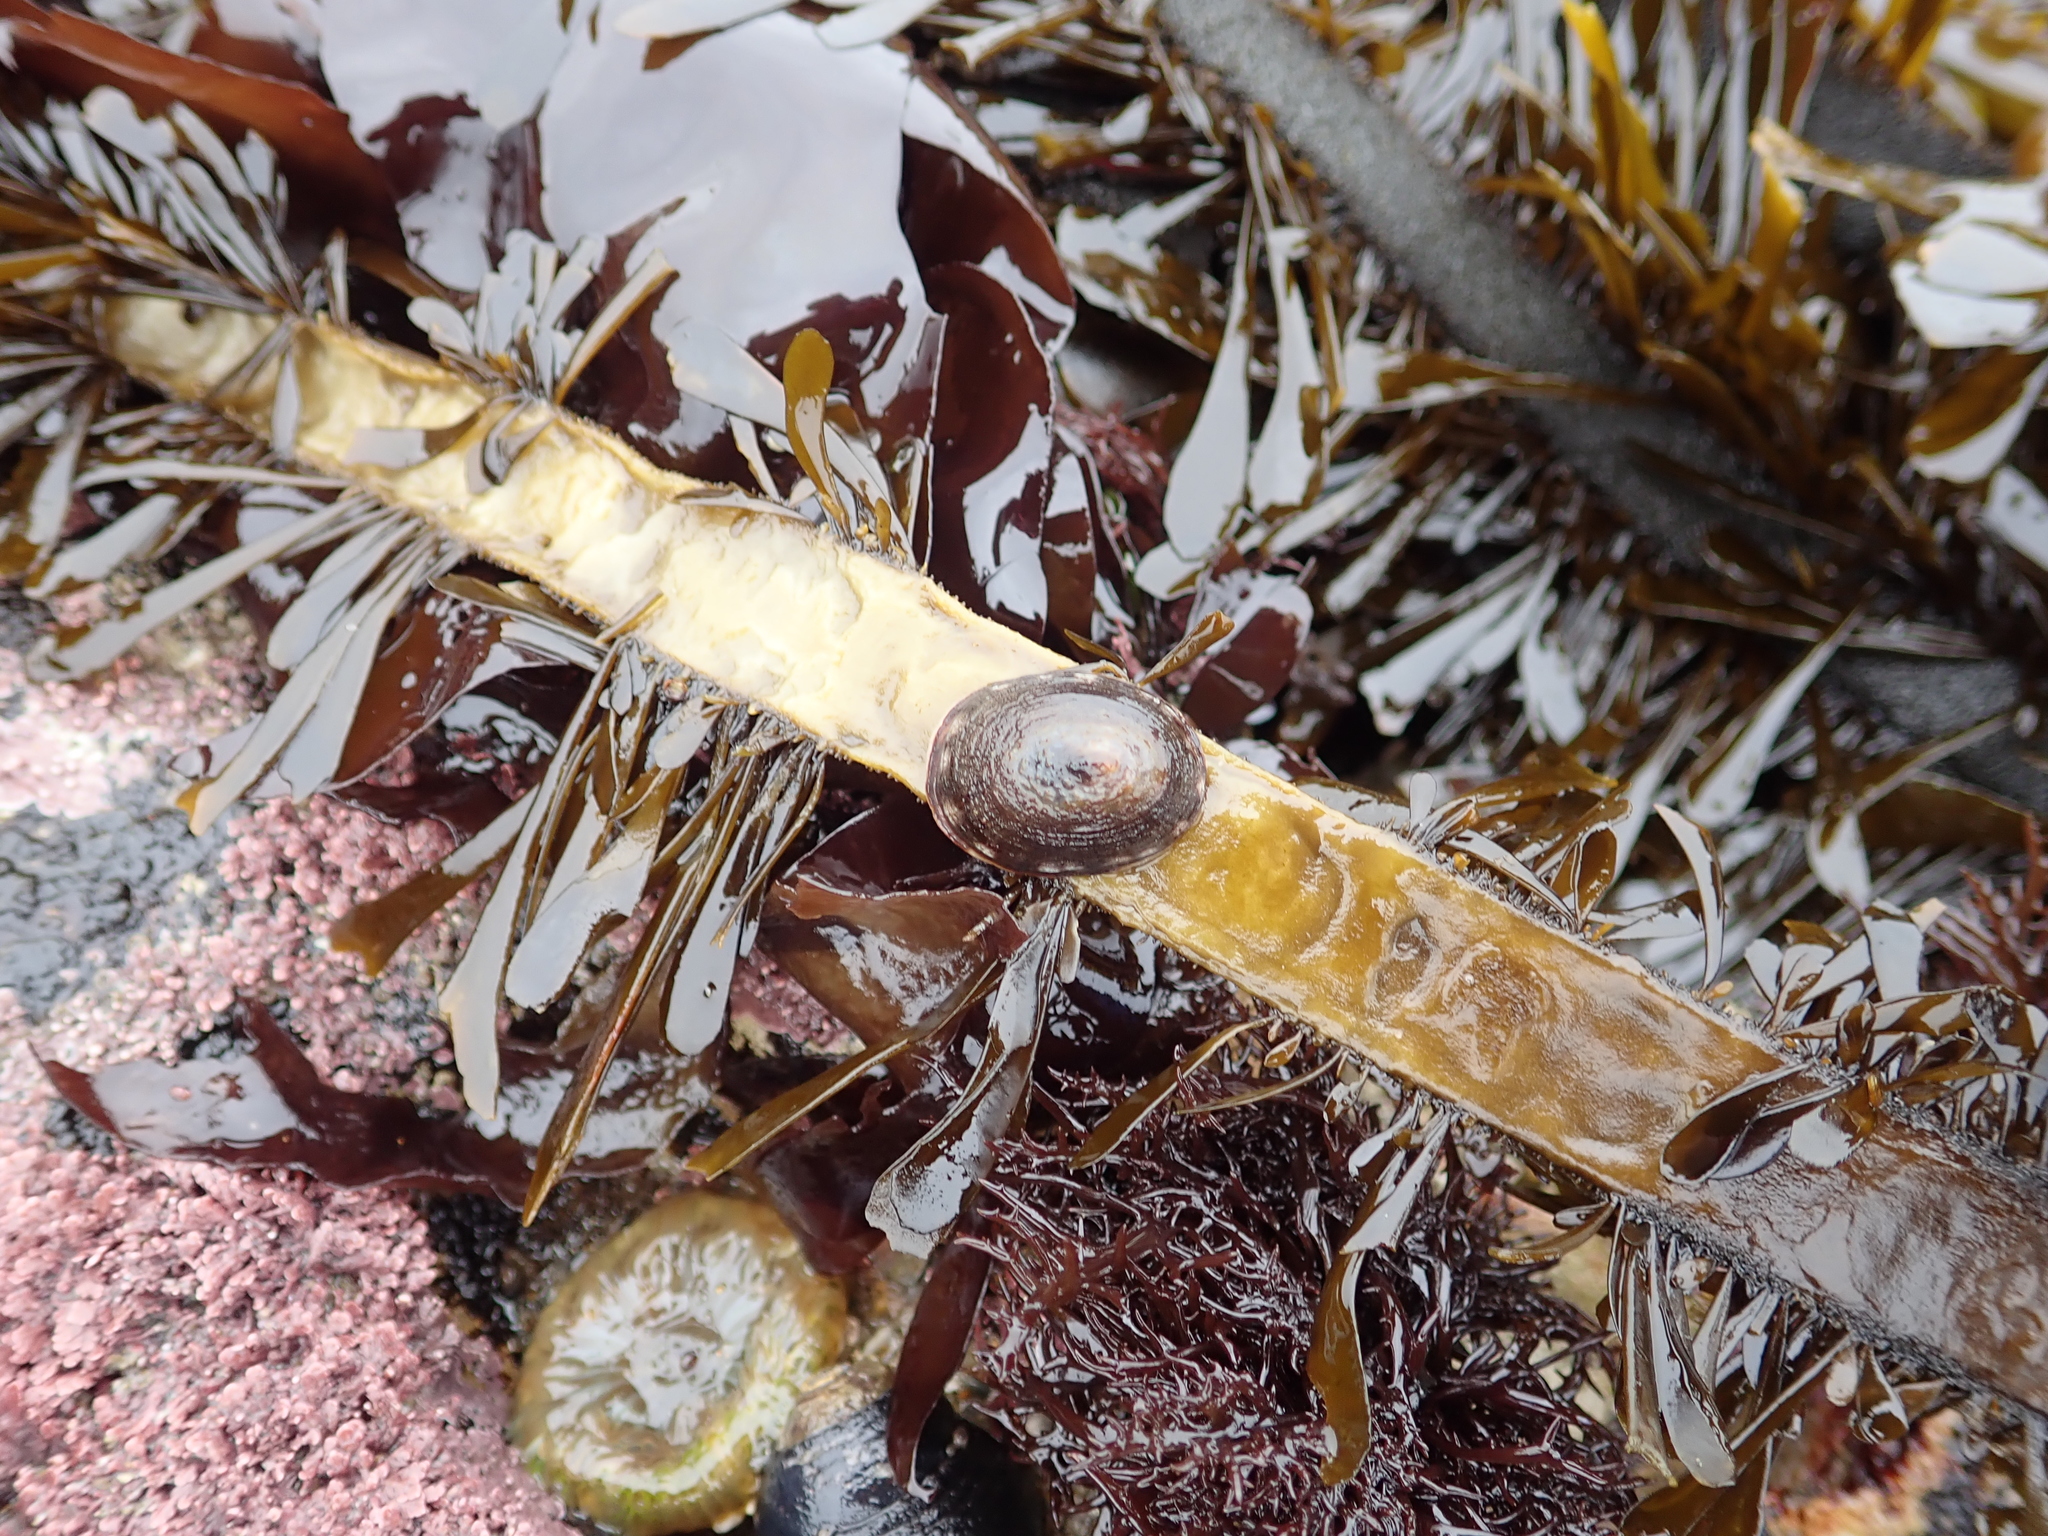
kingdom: Animalia
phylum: Mollusca
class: Gastropoda
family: Lottiidae
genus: Discurria
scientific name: Discurria insessa
